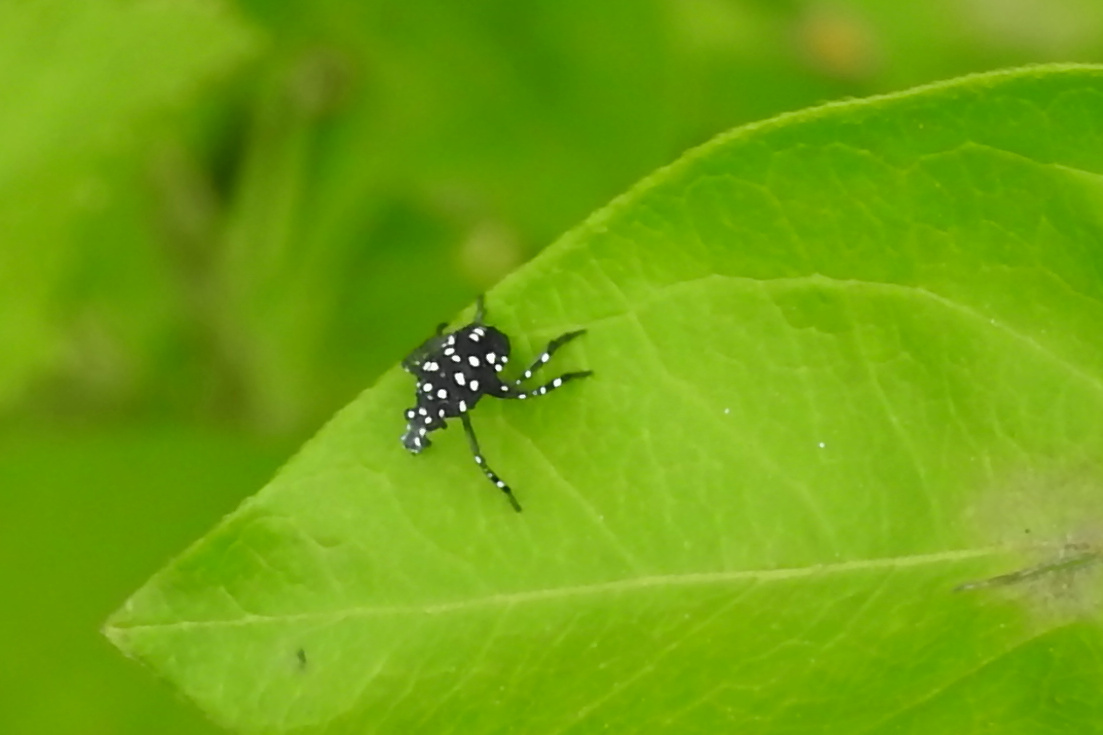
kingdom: Animalia
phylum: Arthropoda
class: Insecta
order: Hemiptera
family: Fulgoridae
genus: Lycorma
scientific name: Lycorma delicatula
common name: Spotted lanternfly
